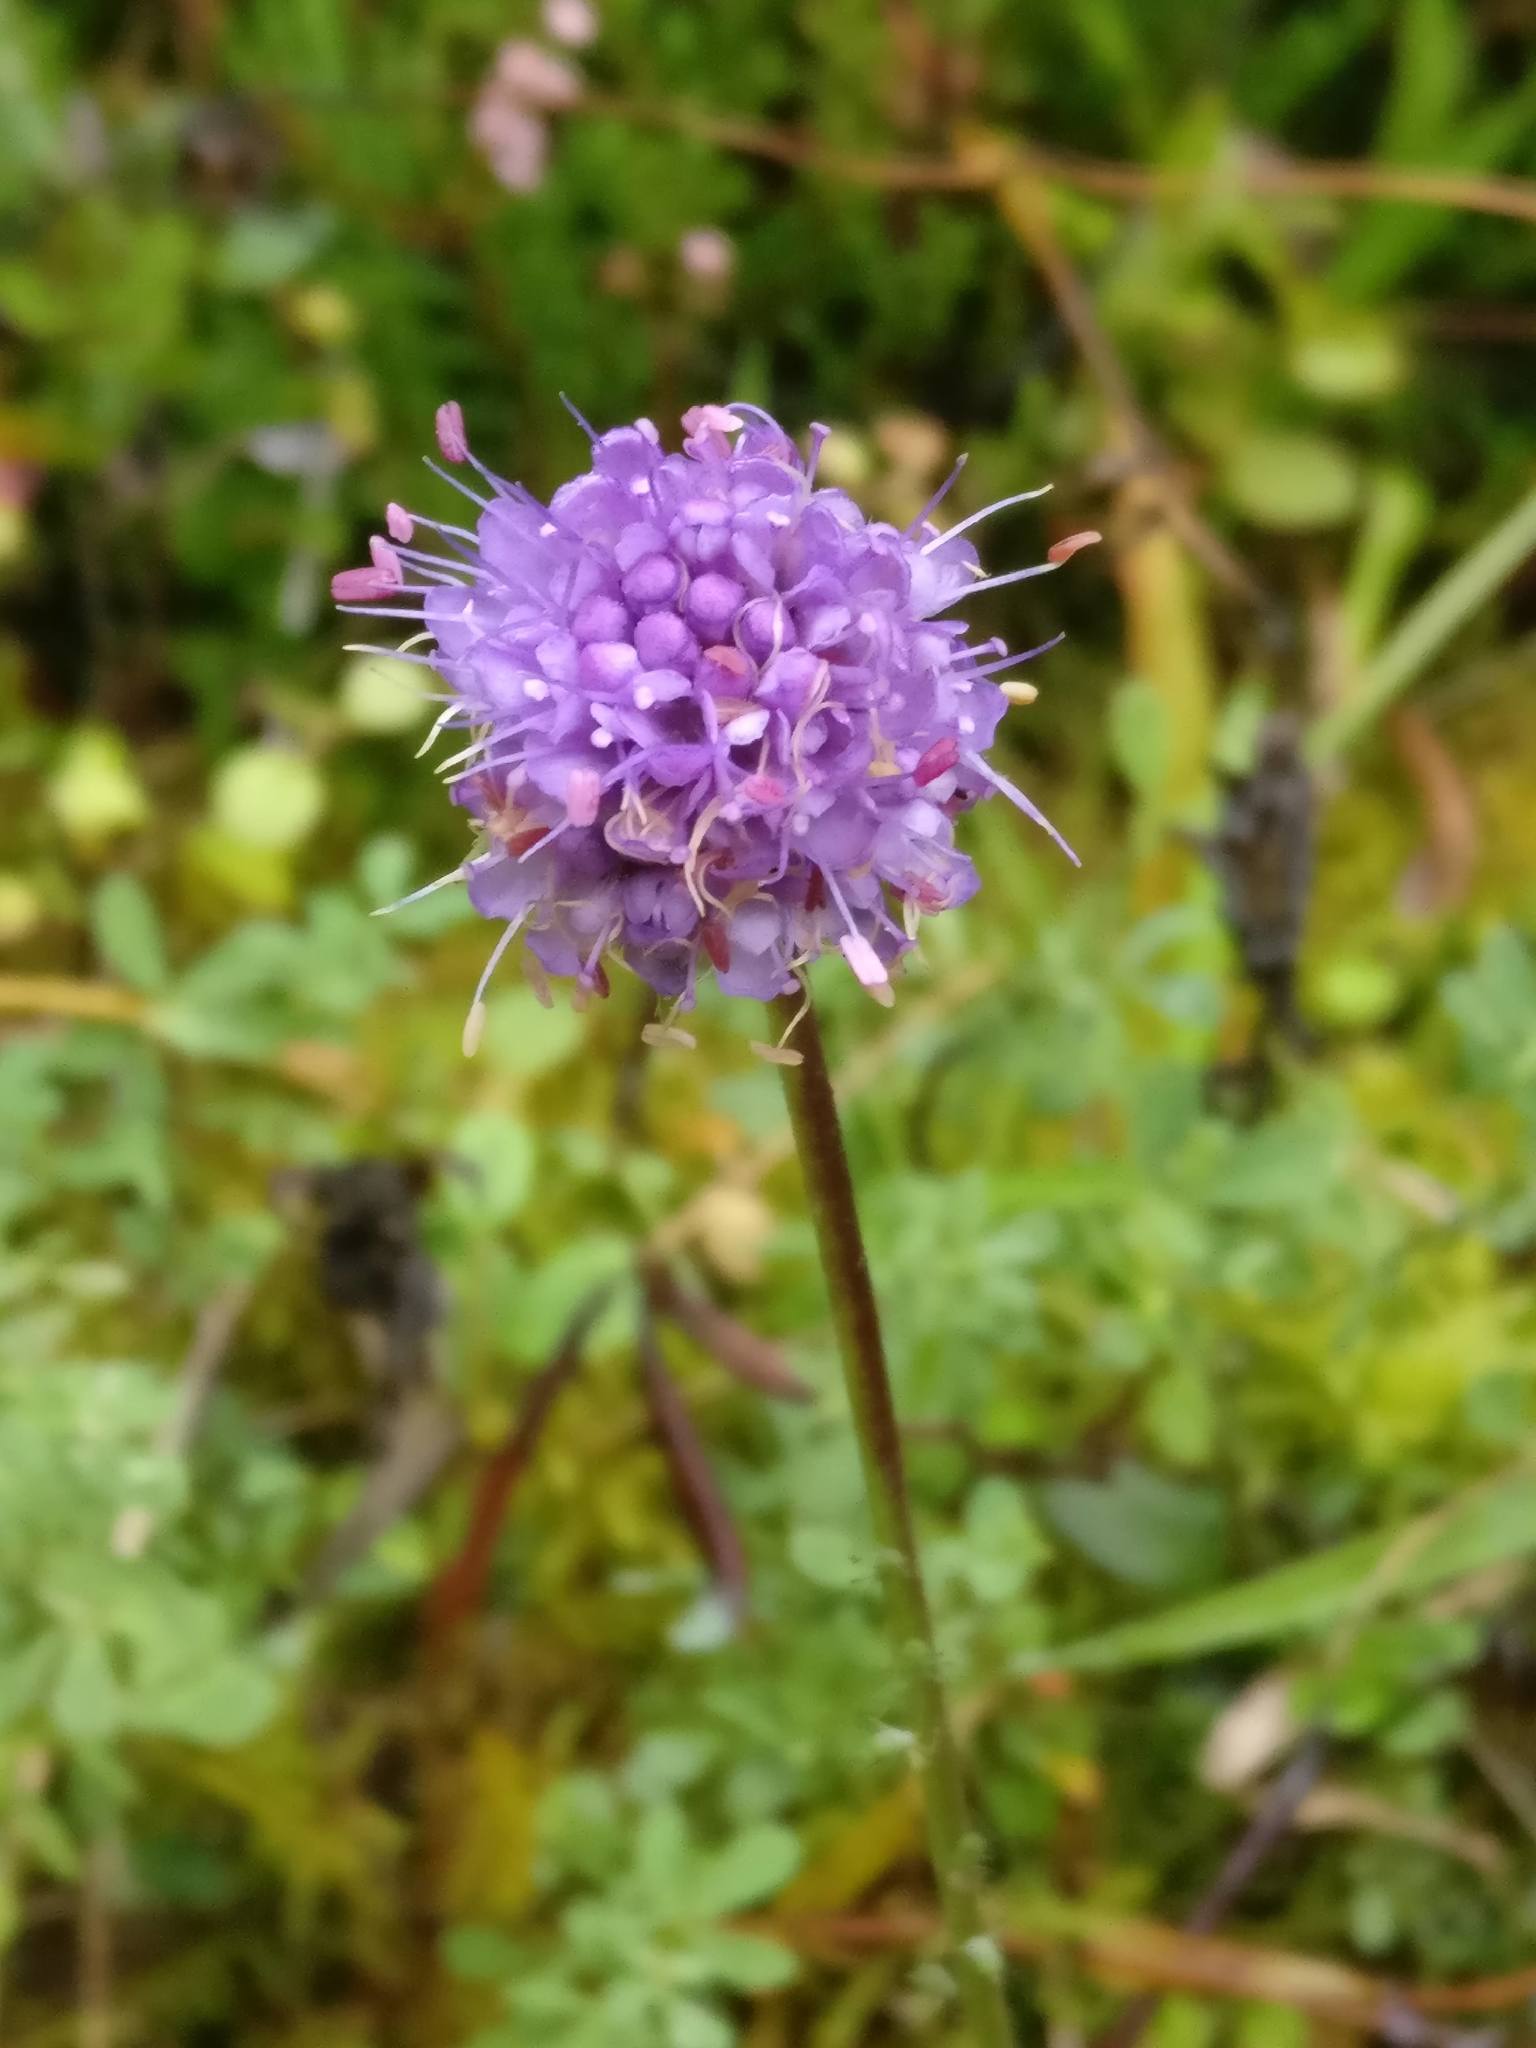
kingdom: Plantae
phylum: Tracheophyta
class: Magnoliopsida
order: Dipsacales
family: Caprifoliaceae
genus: Succisa
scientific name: Succisa pratensis
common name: Devil's-bit
